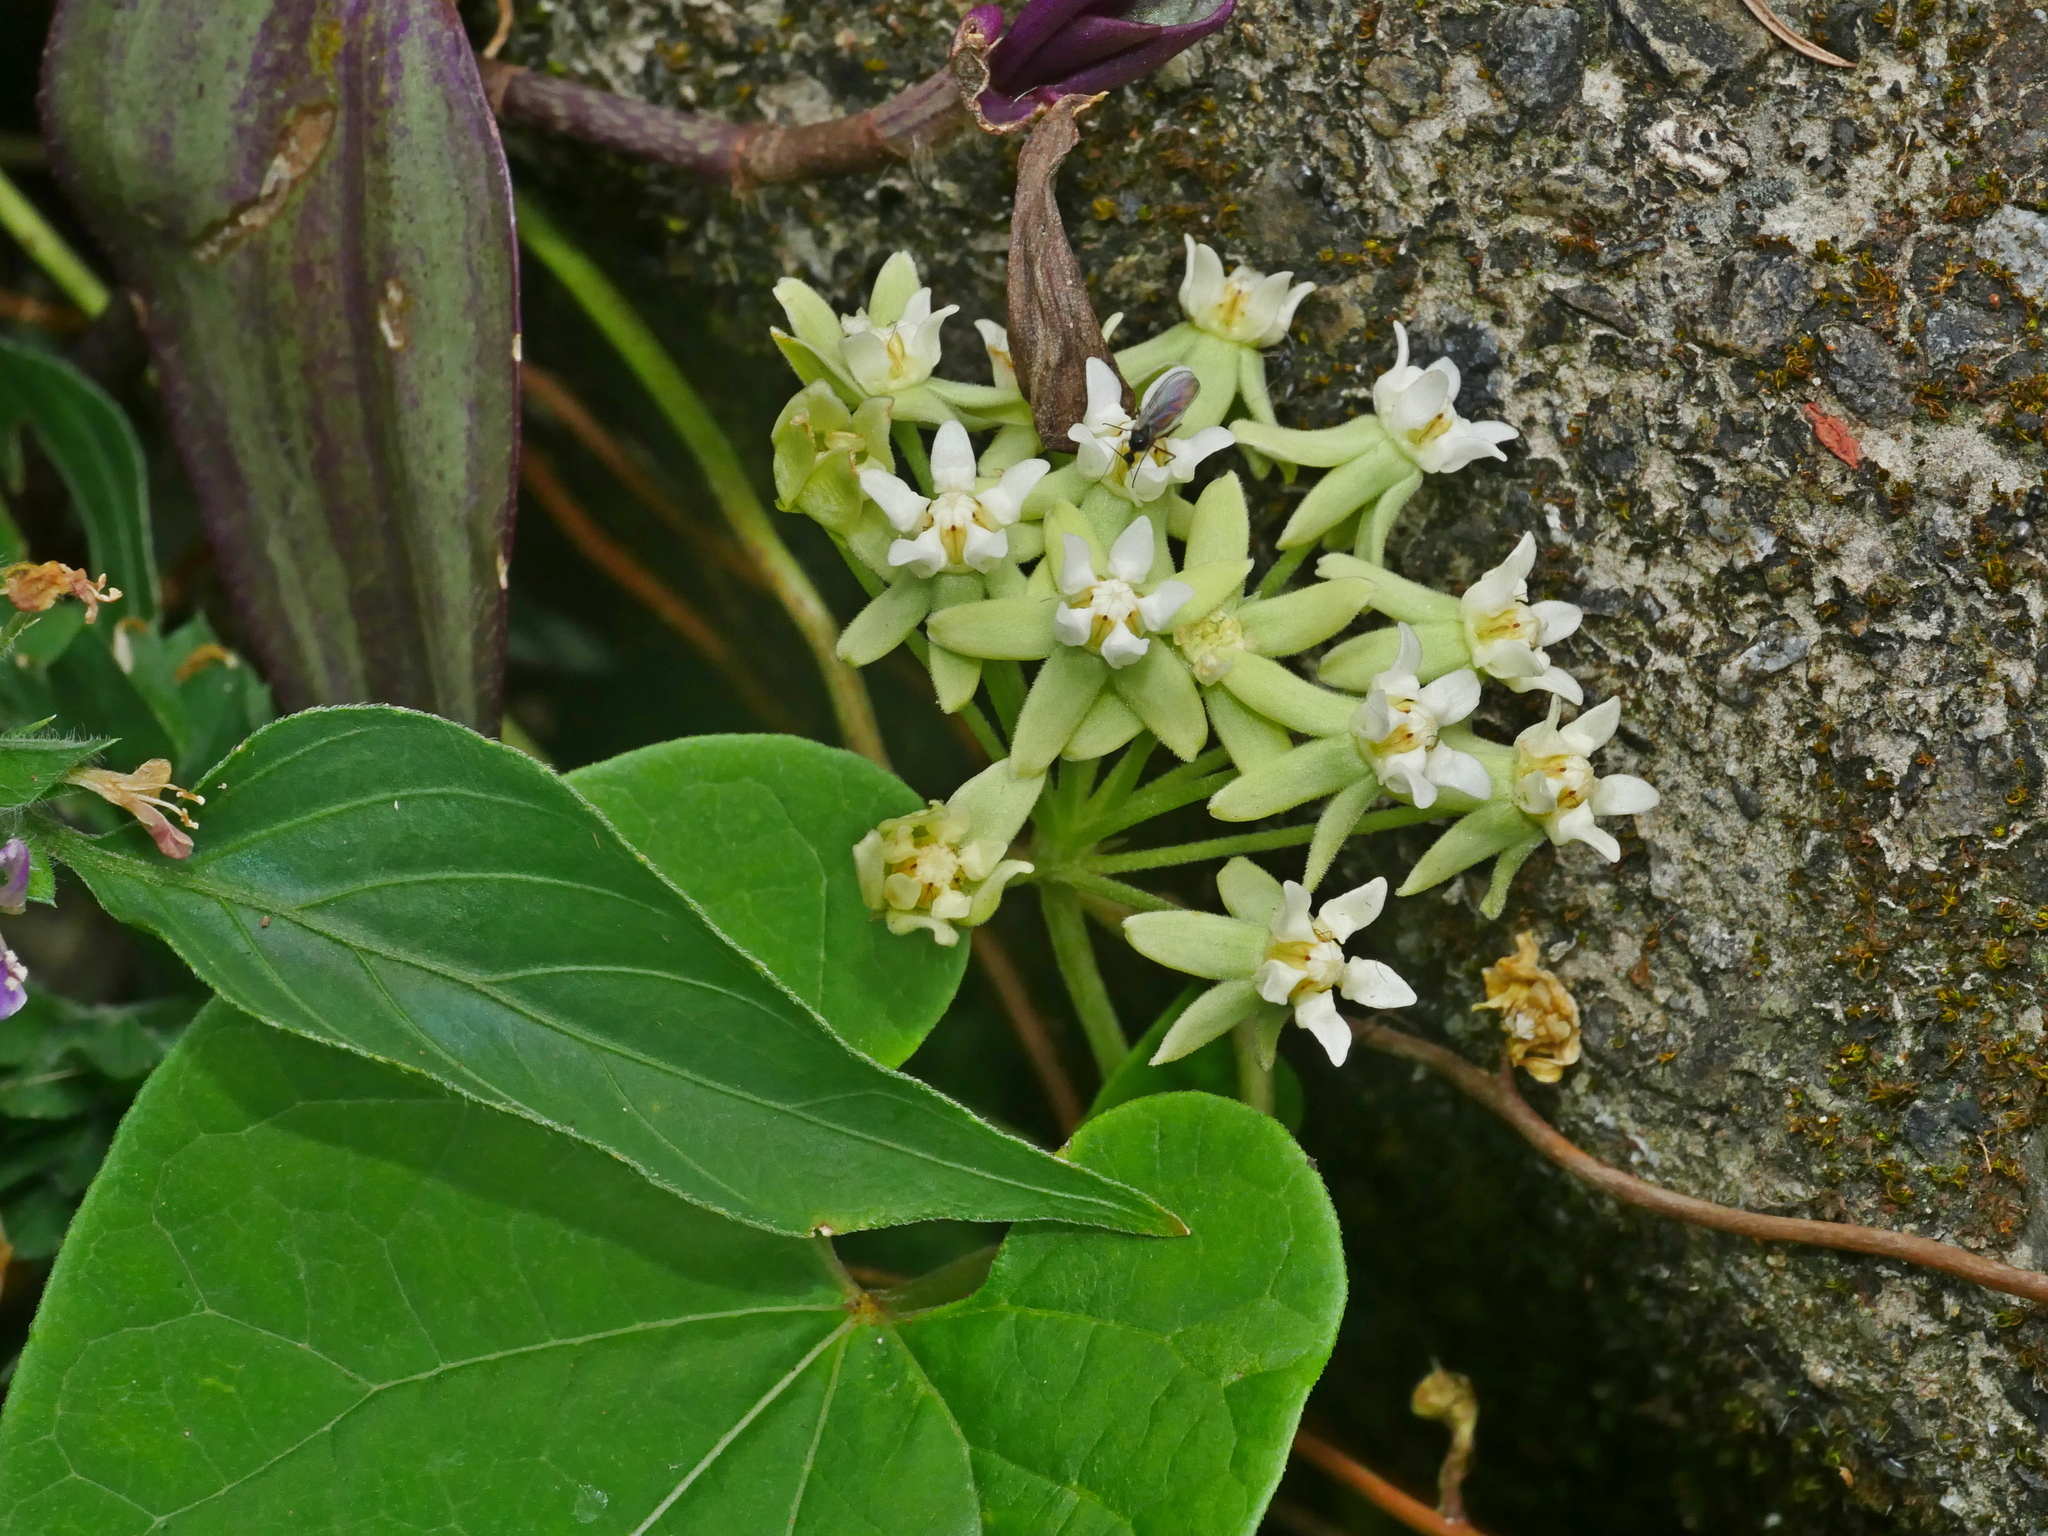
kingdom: Plantae
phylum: Tracheophyta
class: Magnoliopsida
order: Gentianales
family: Apocynaceae
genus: Cynanchum
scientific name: Cynanchum boudieri
